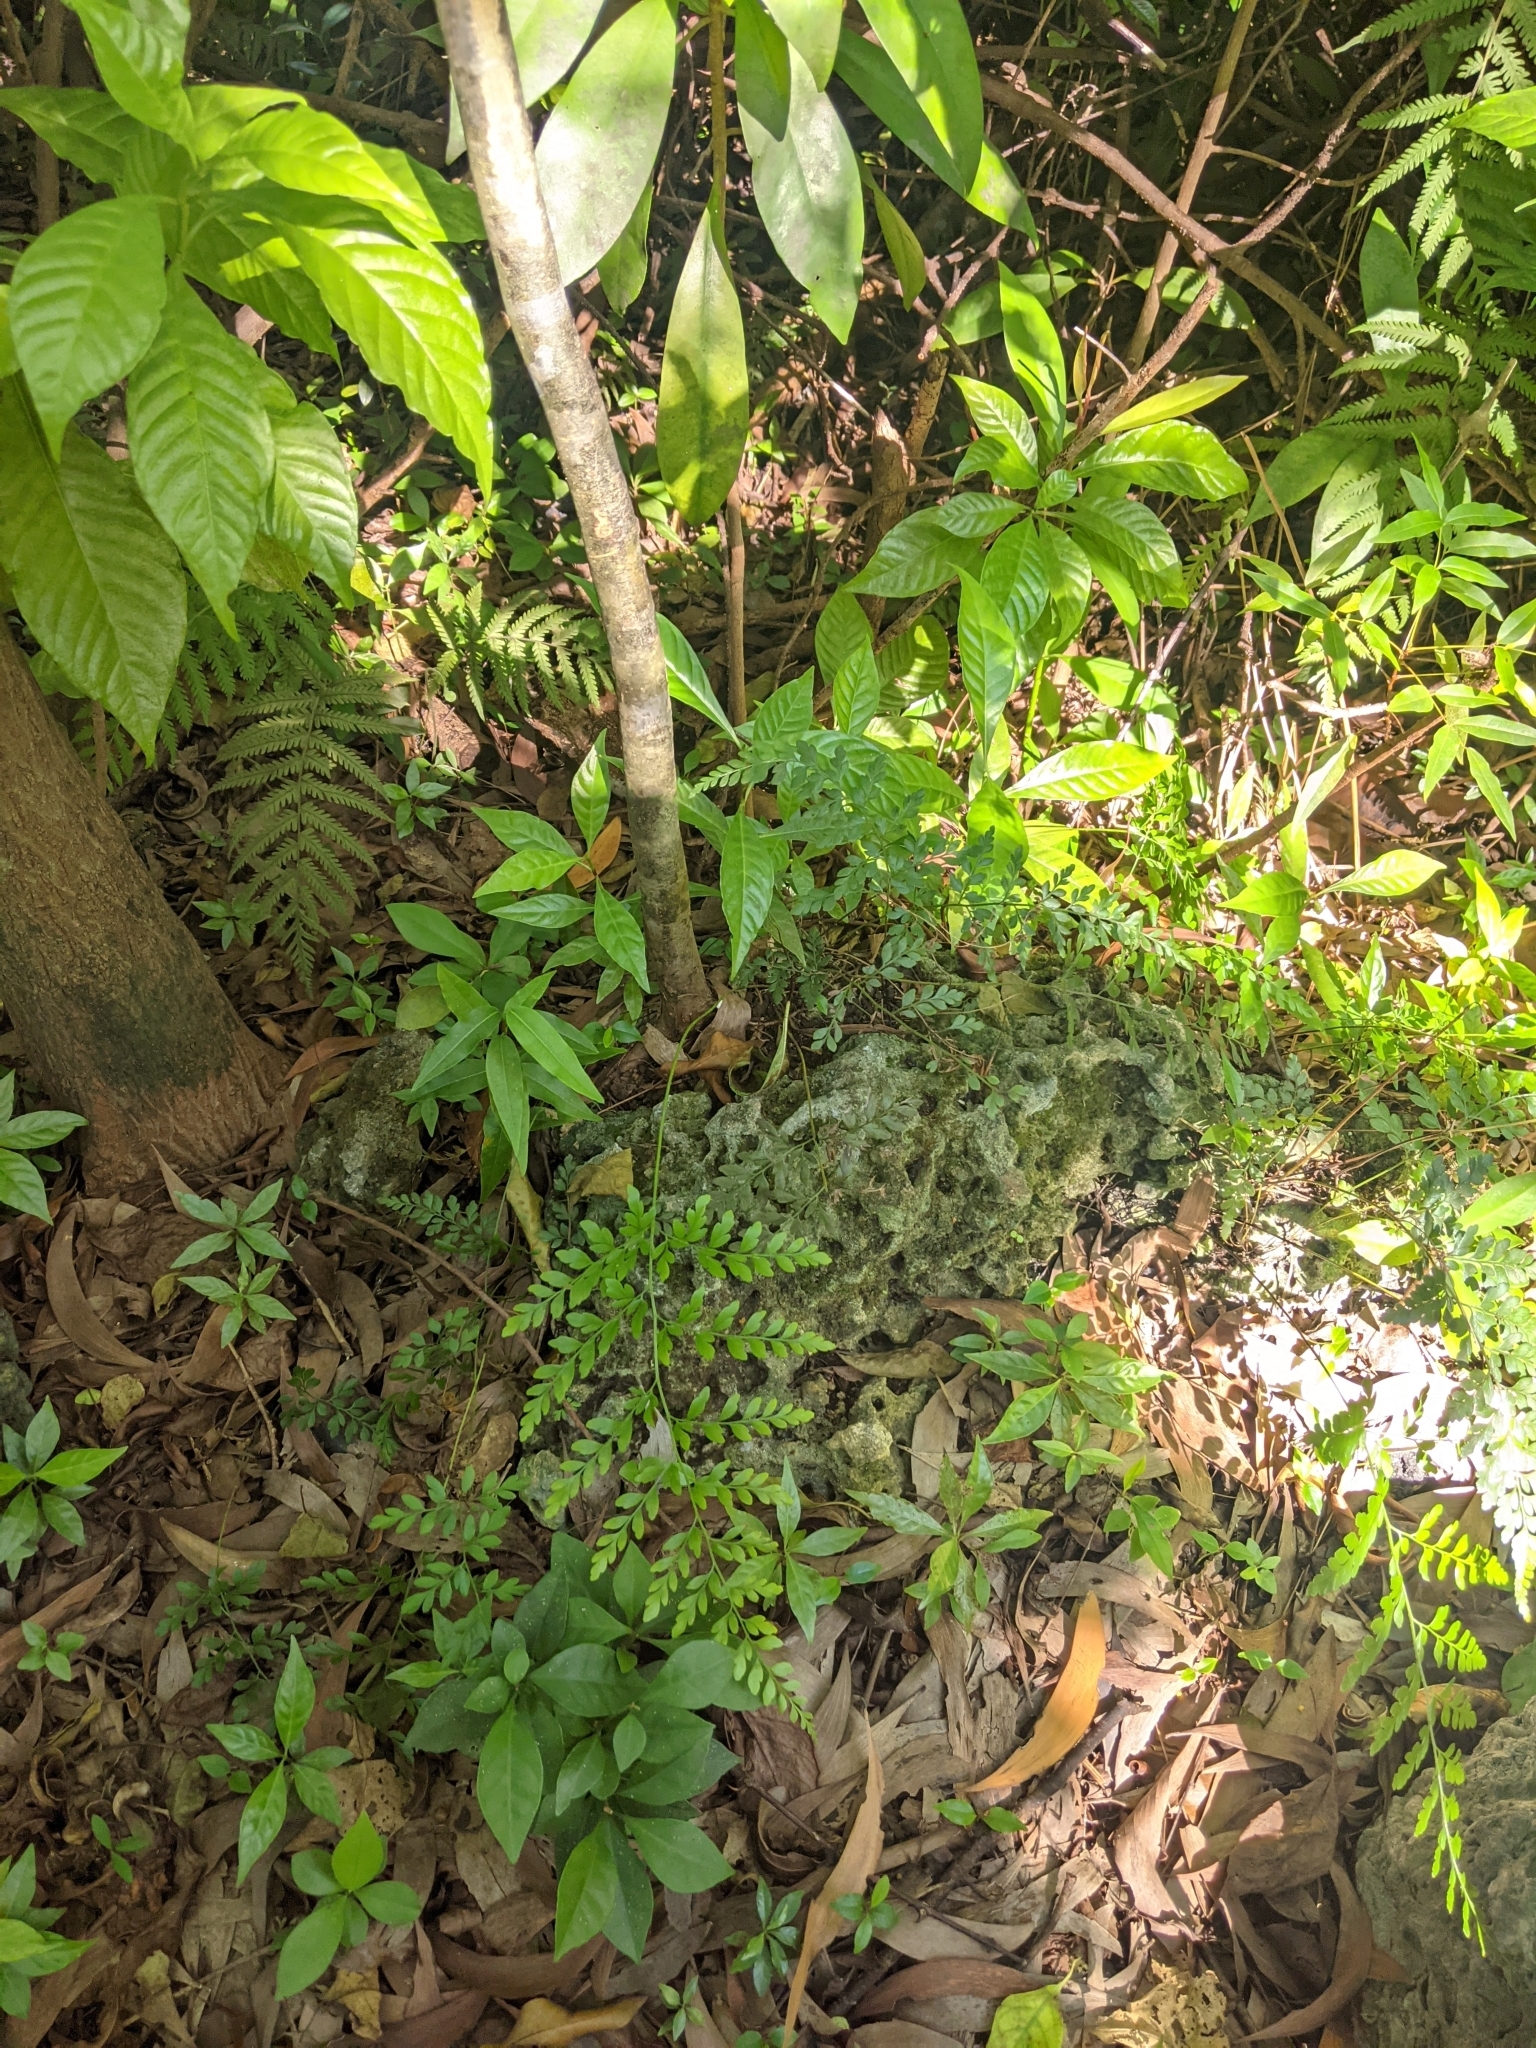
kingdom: Plantae
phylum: Tracheophyta
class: Polypodiopsida
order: Schizaeales
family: Anemiaceae
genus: Anemia
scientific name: Anemia adiantifolia
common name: Pine fern
